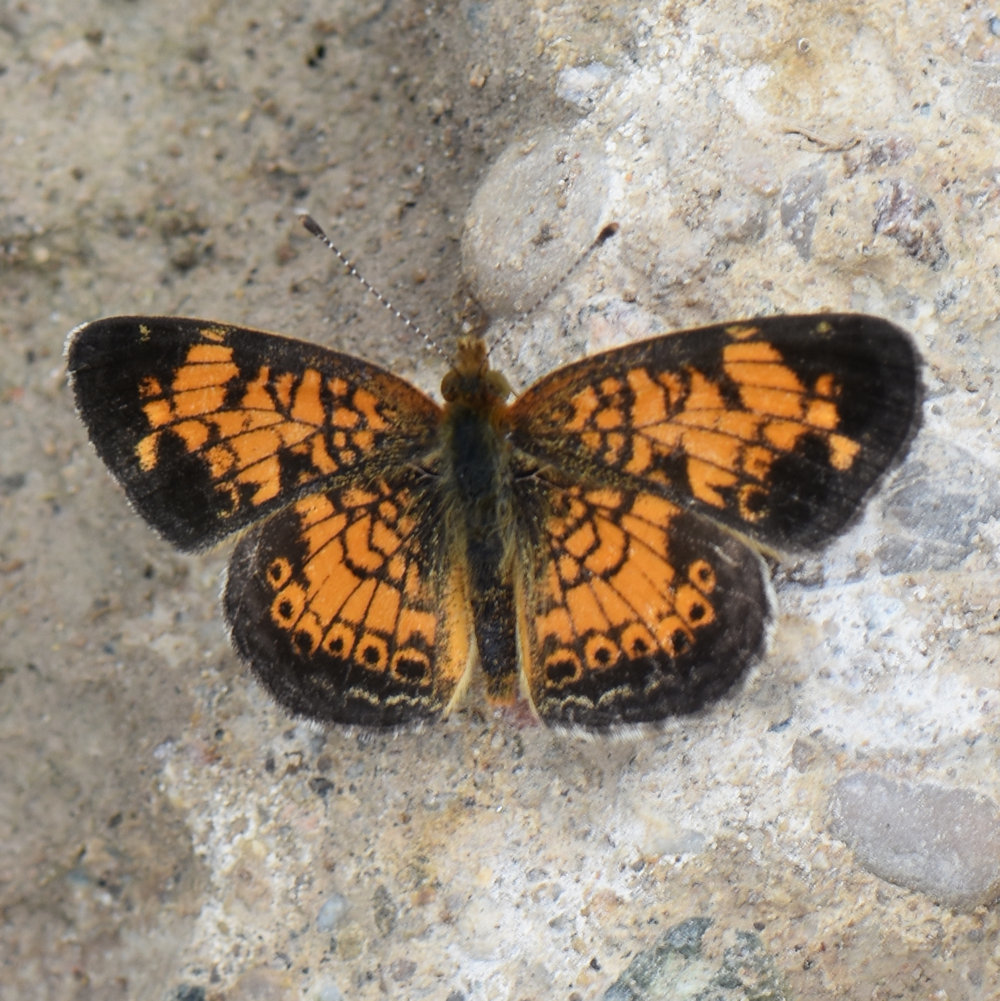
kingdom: Animalia
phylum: Arthropoda
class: Insecta
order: Lepidoptera
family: Nymphalidae
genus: Phyciodes
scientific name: Phyciodes tharos
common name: Pearl crescent
